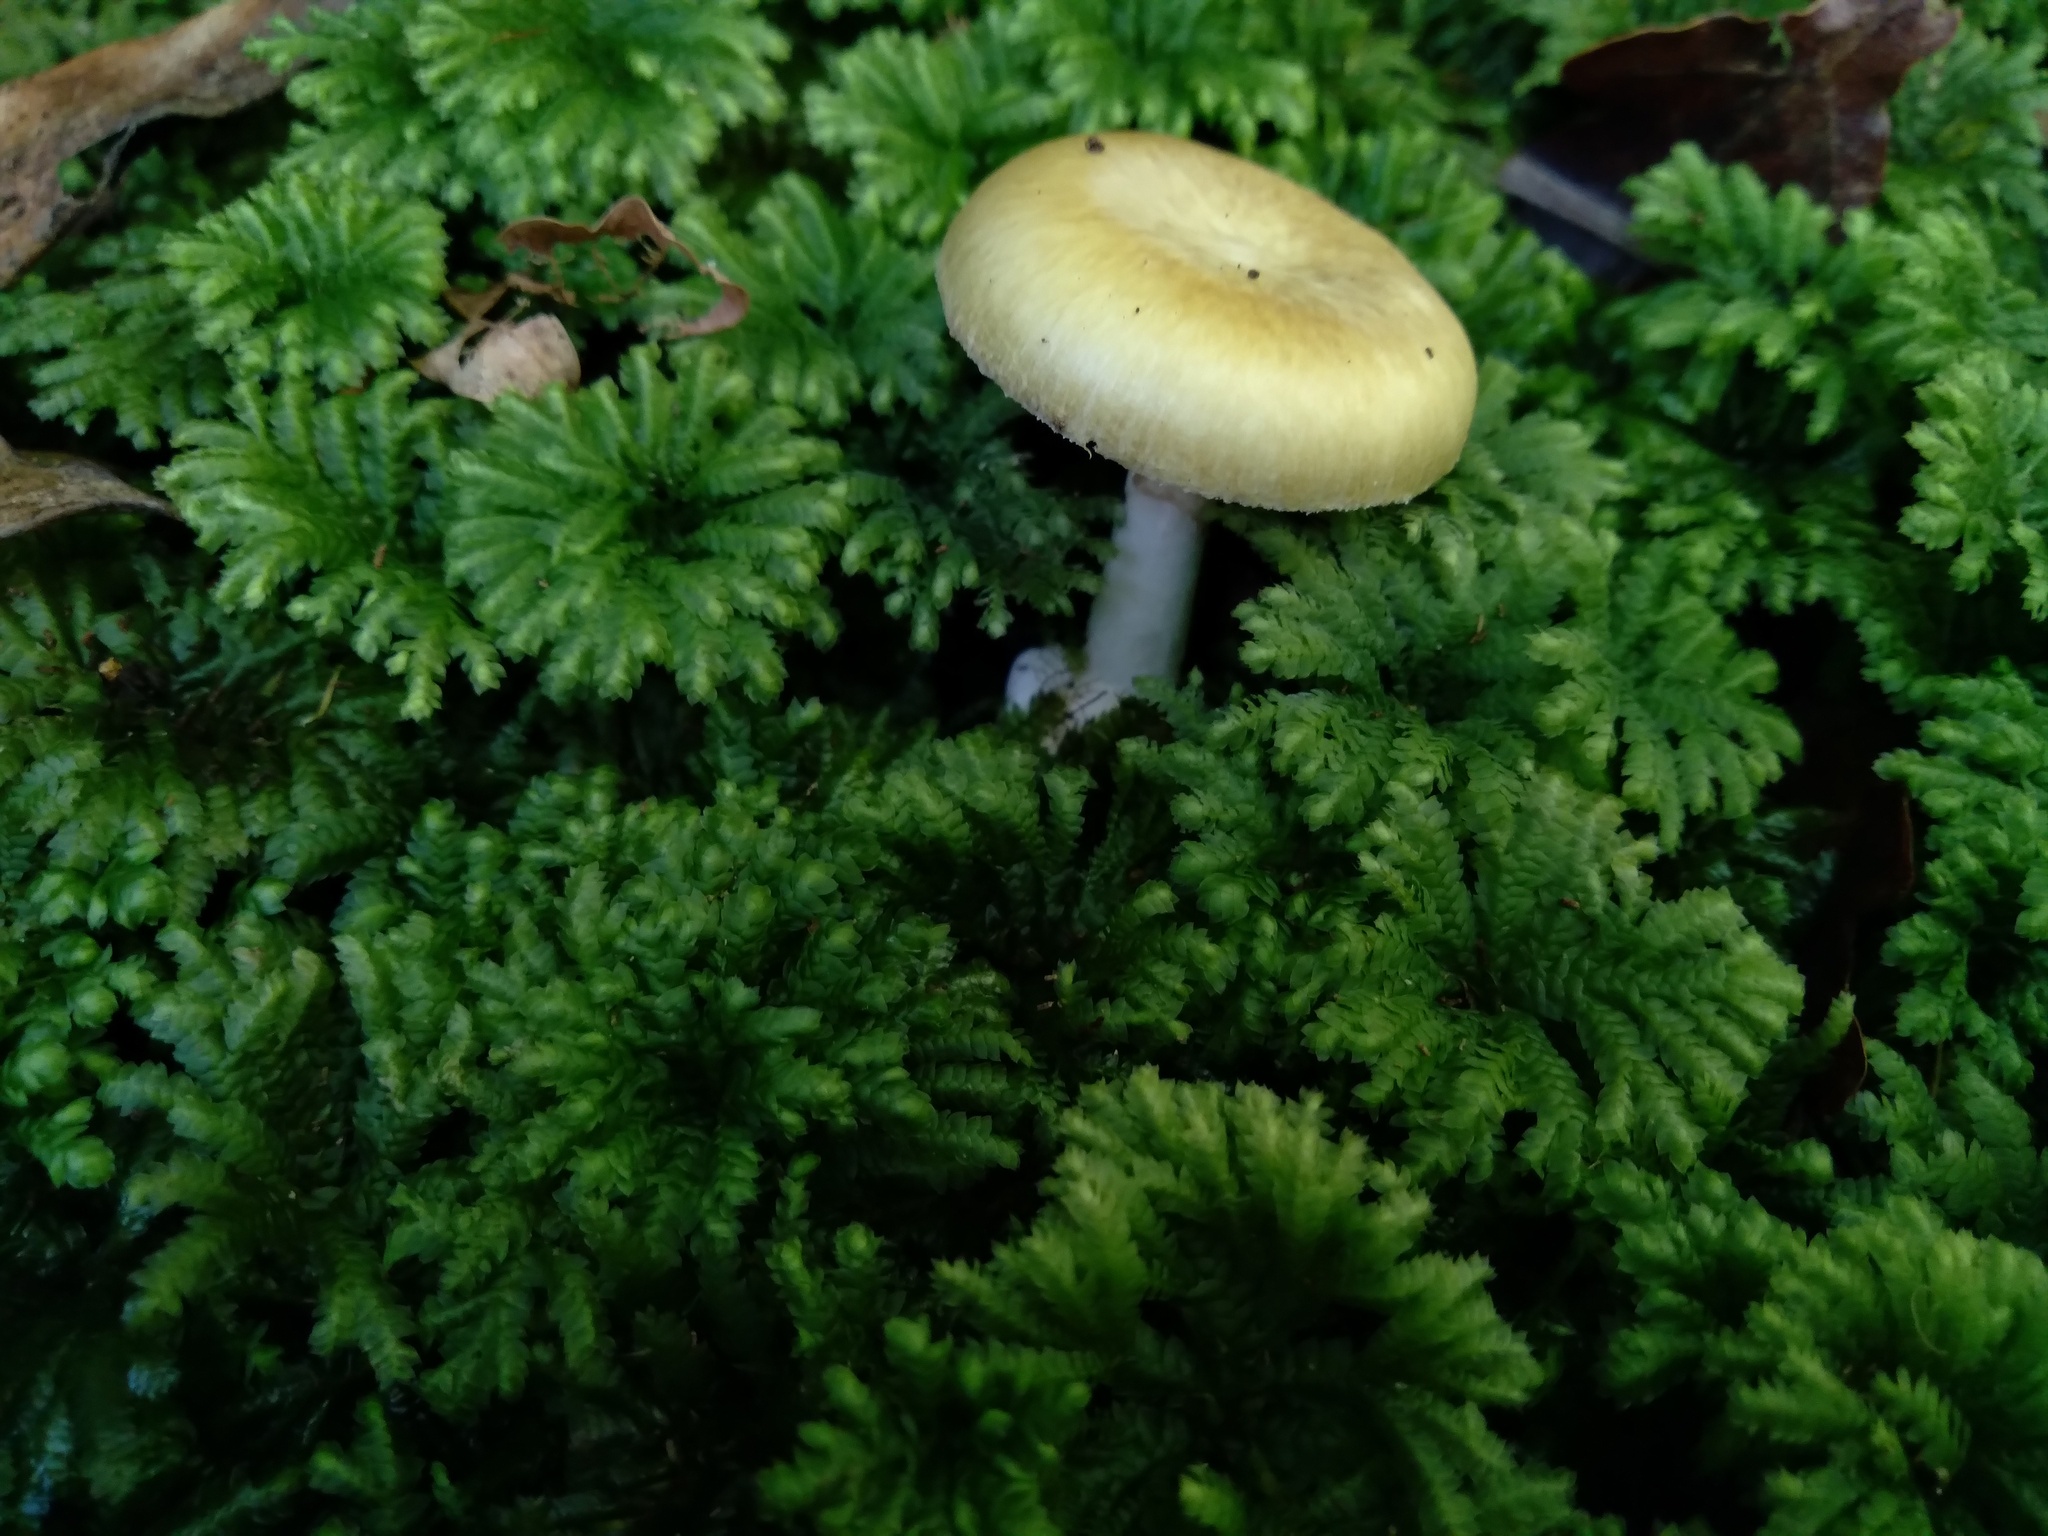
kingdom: Fungi
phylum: Basidiomycota
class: Agaricomycetes
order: Agaricales
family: Amanitaceae
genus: Amanita
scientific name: Amanita phalloides
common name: Death cap
